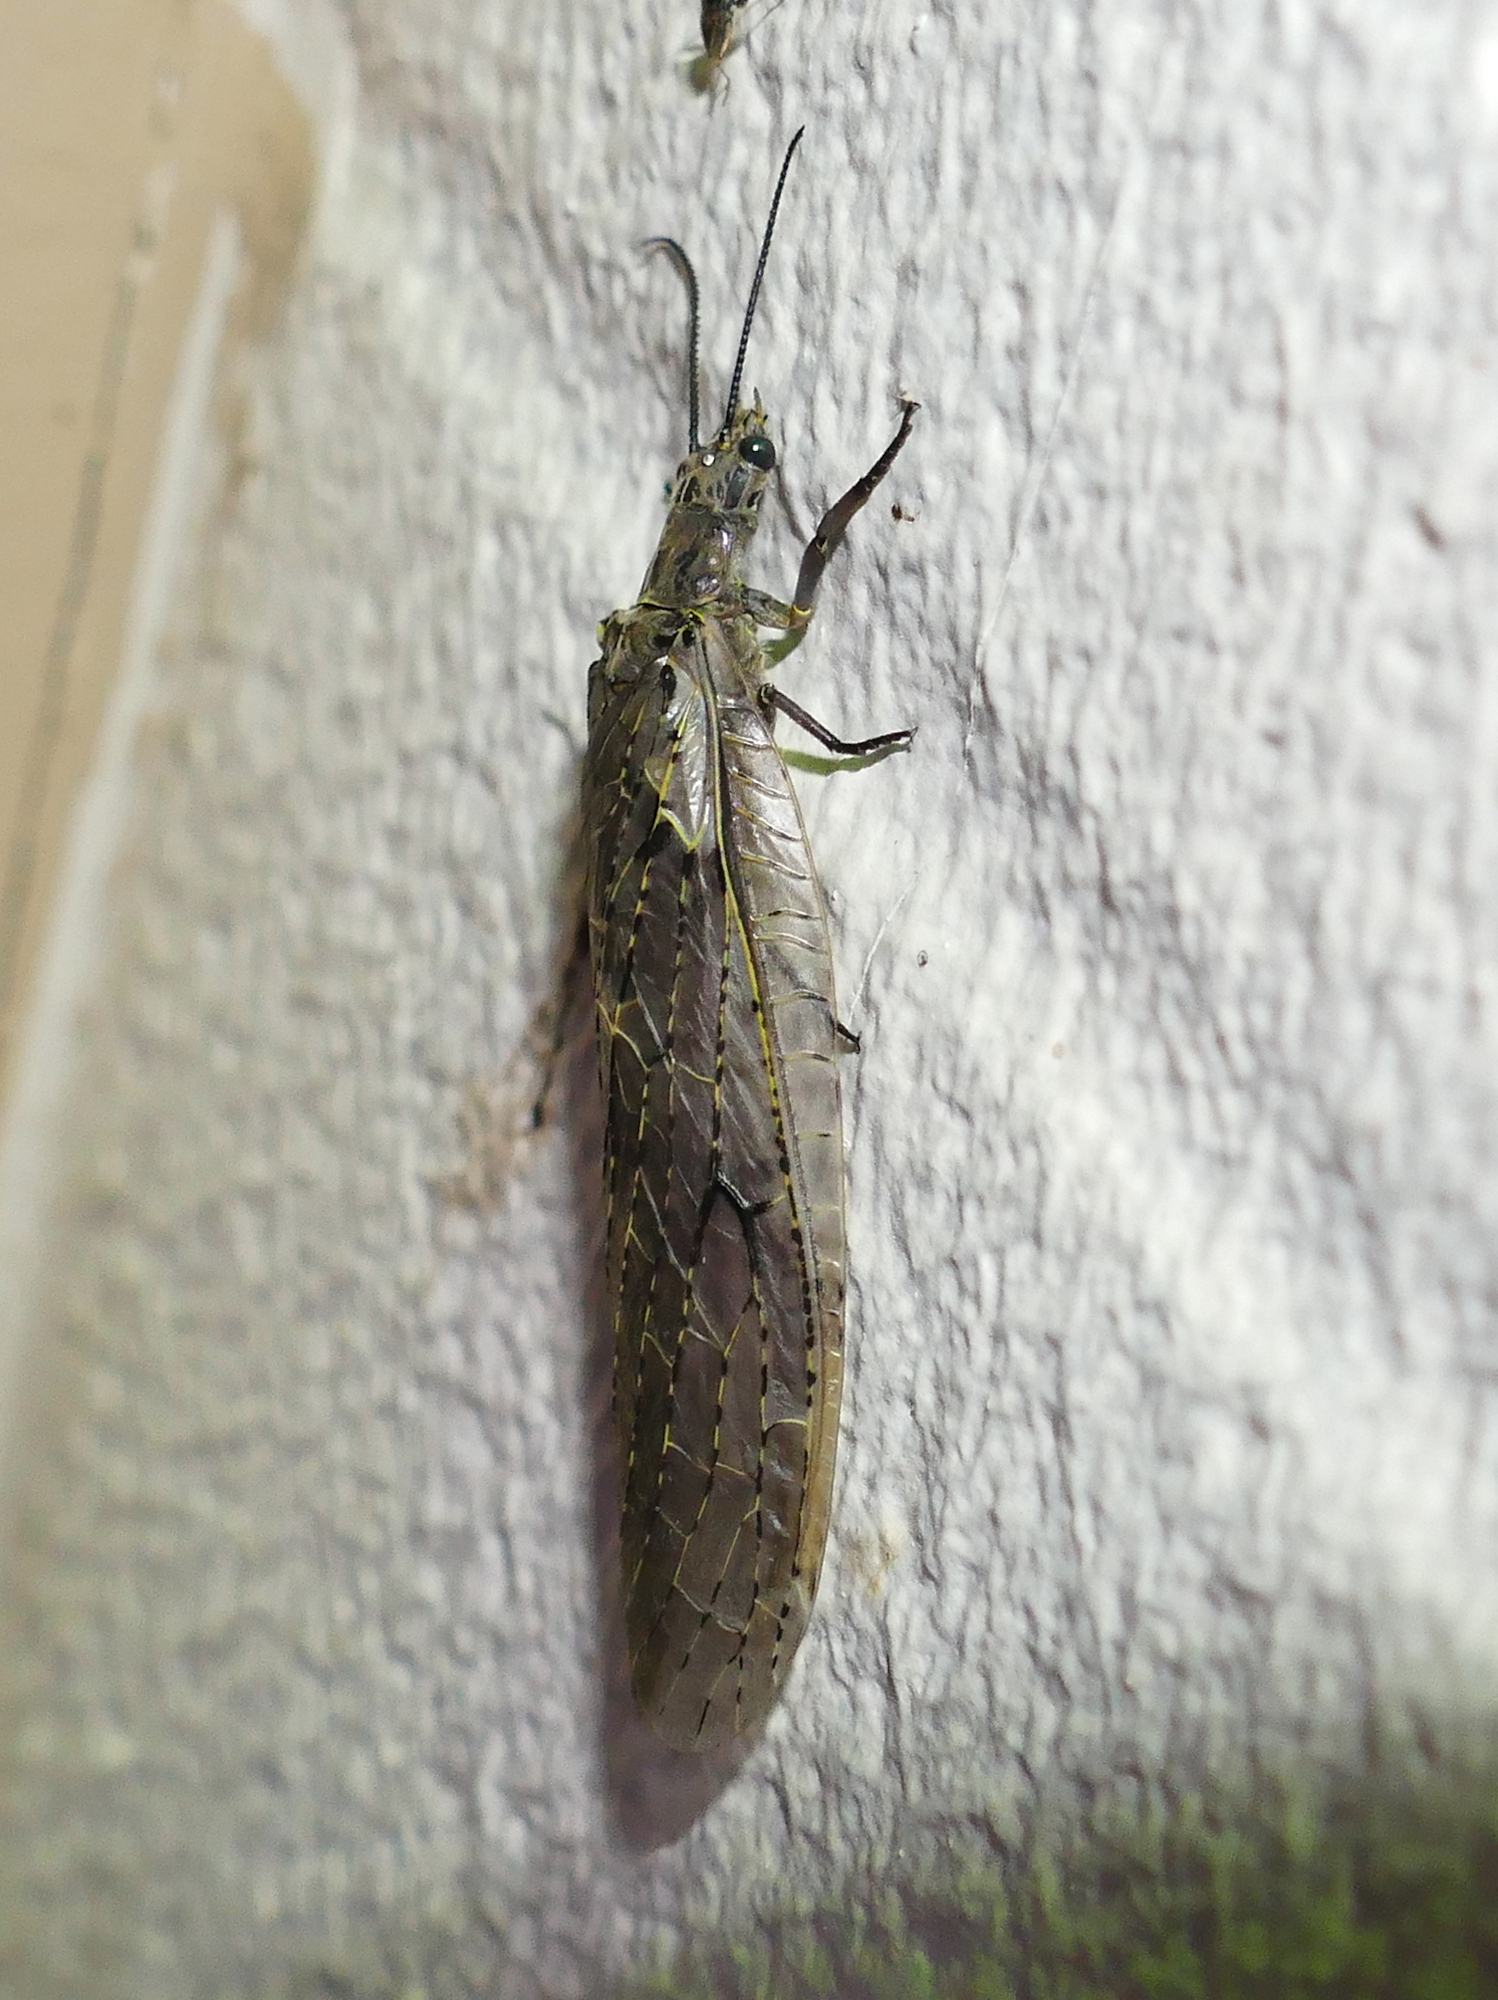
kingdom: Animalia
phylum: Arthropoda
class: Insecta
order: Megaloptera
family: Corydalidae
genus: Chauliodes
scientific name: Chauliodes rastricornis
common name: Spring fishfly
